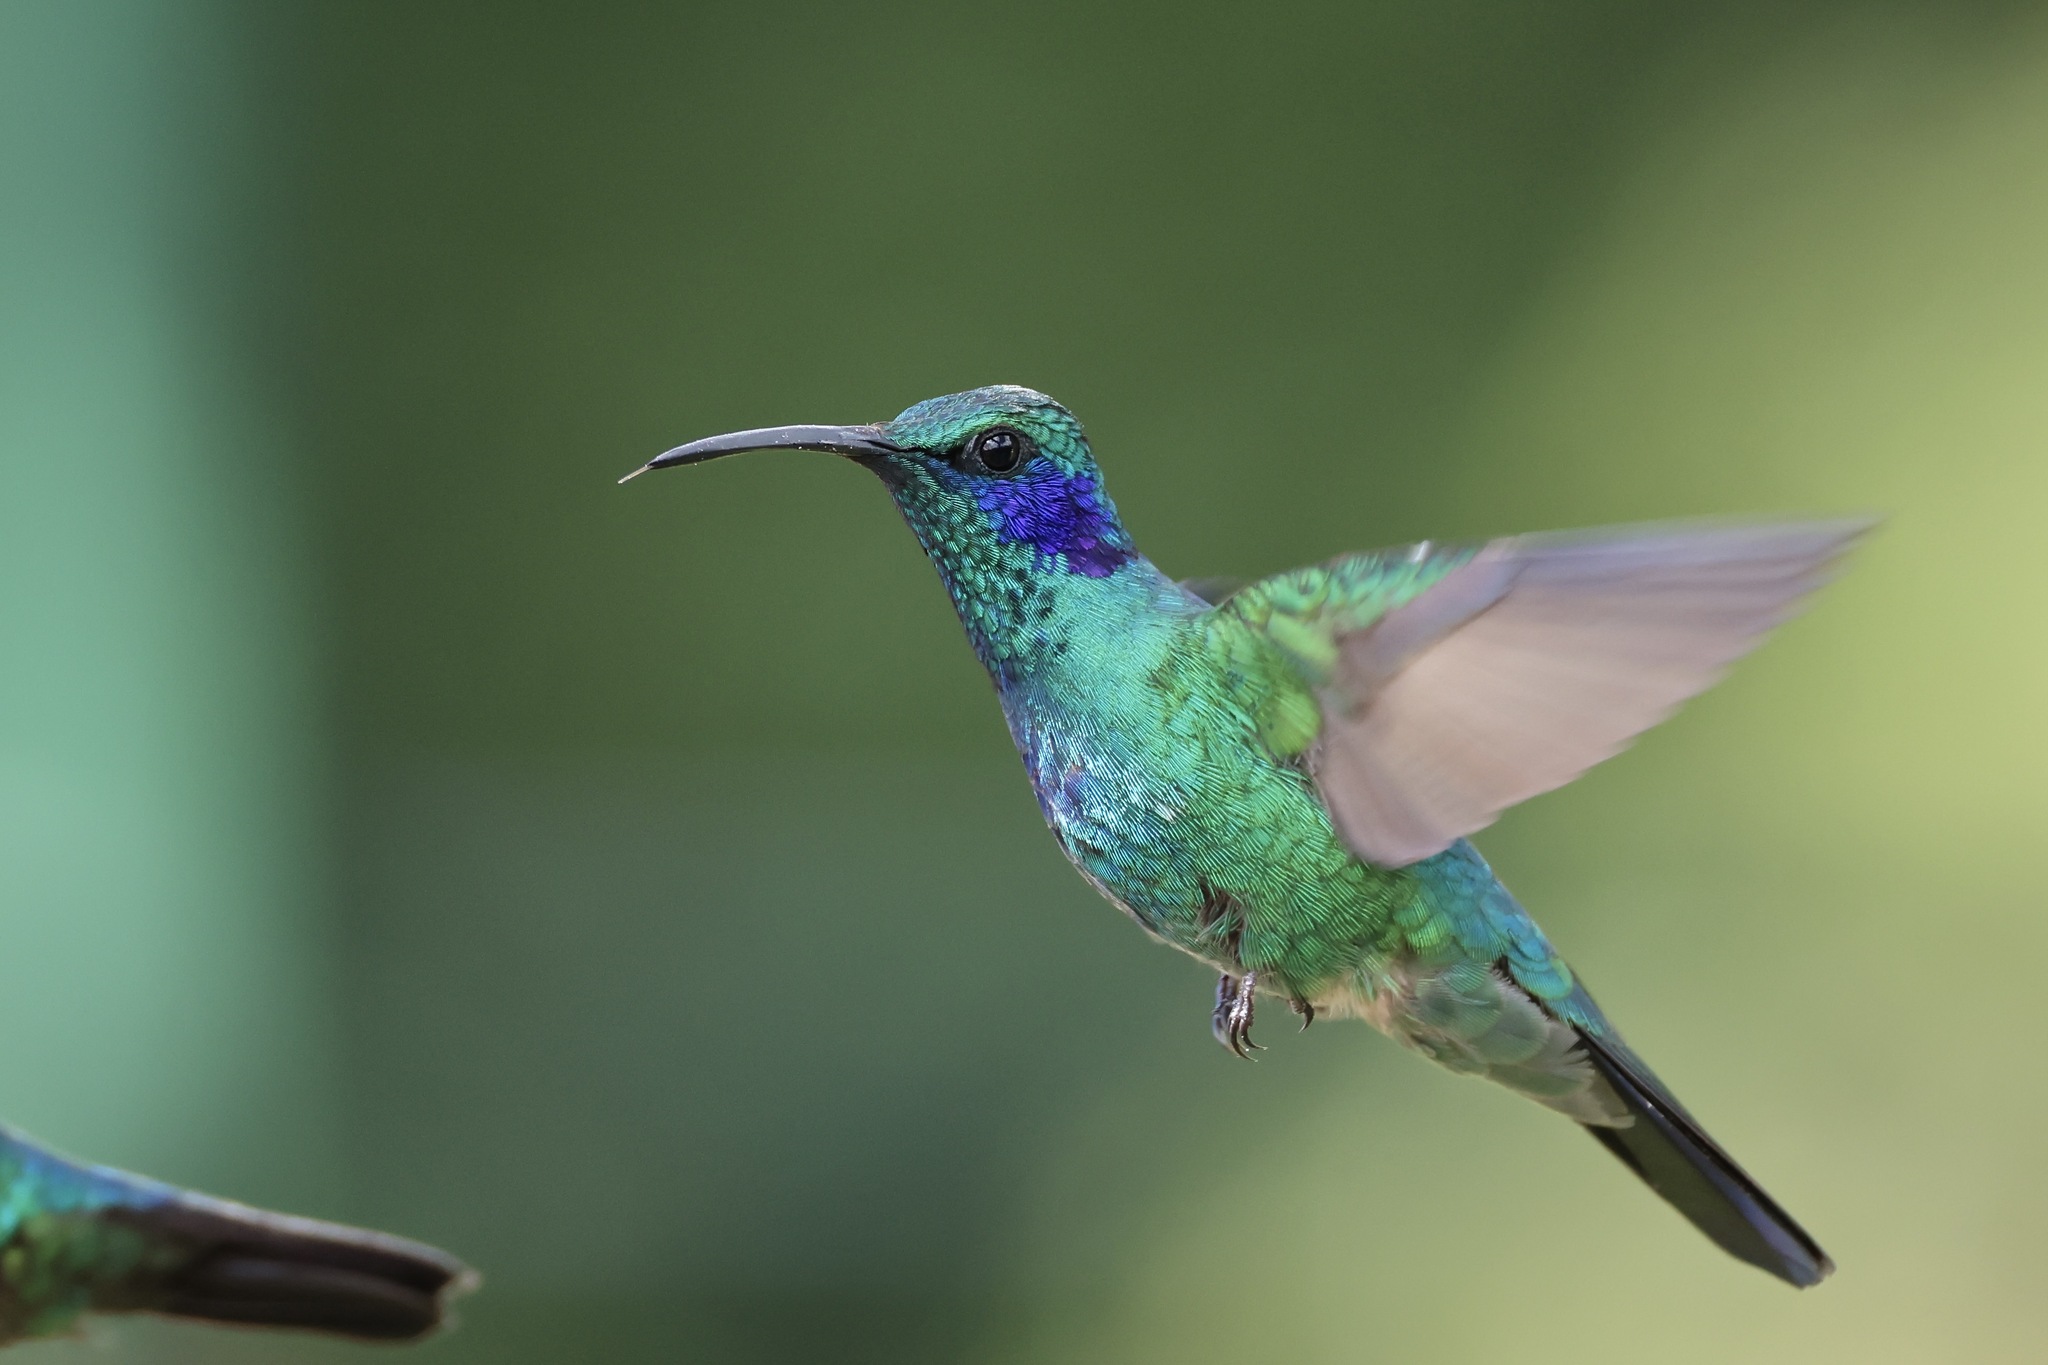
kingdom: Animalia
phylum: Chordata
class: Aves
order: Apodiformes
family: Trochilidae
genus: Colibri
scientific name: Colibri cyanotus
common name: Lesser violetear
